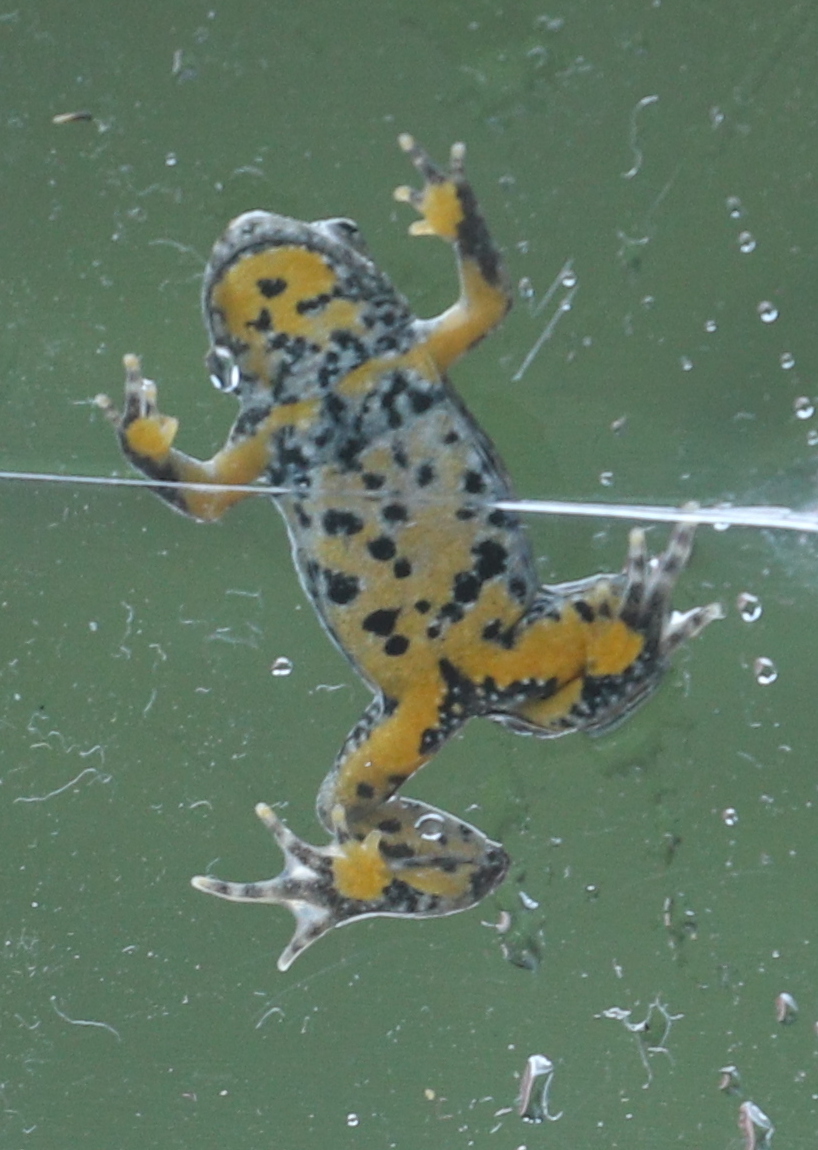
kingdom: Animalia
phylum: Chordata
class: Amphibia
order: Anura
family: Bombinatoridae
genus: Bombina
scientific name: Bombina variegata
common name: Yellow-bellied toad
